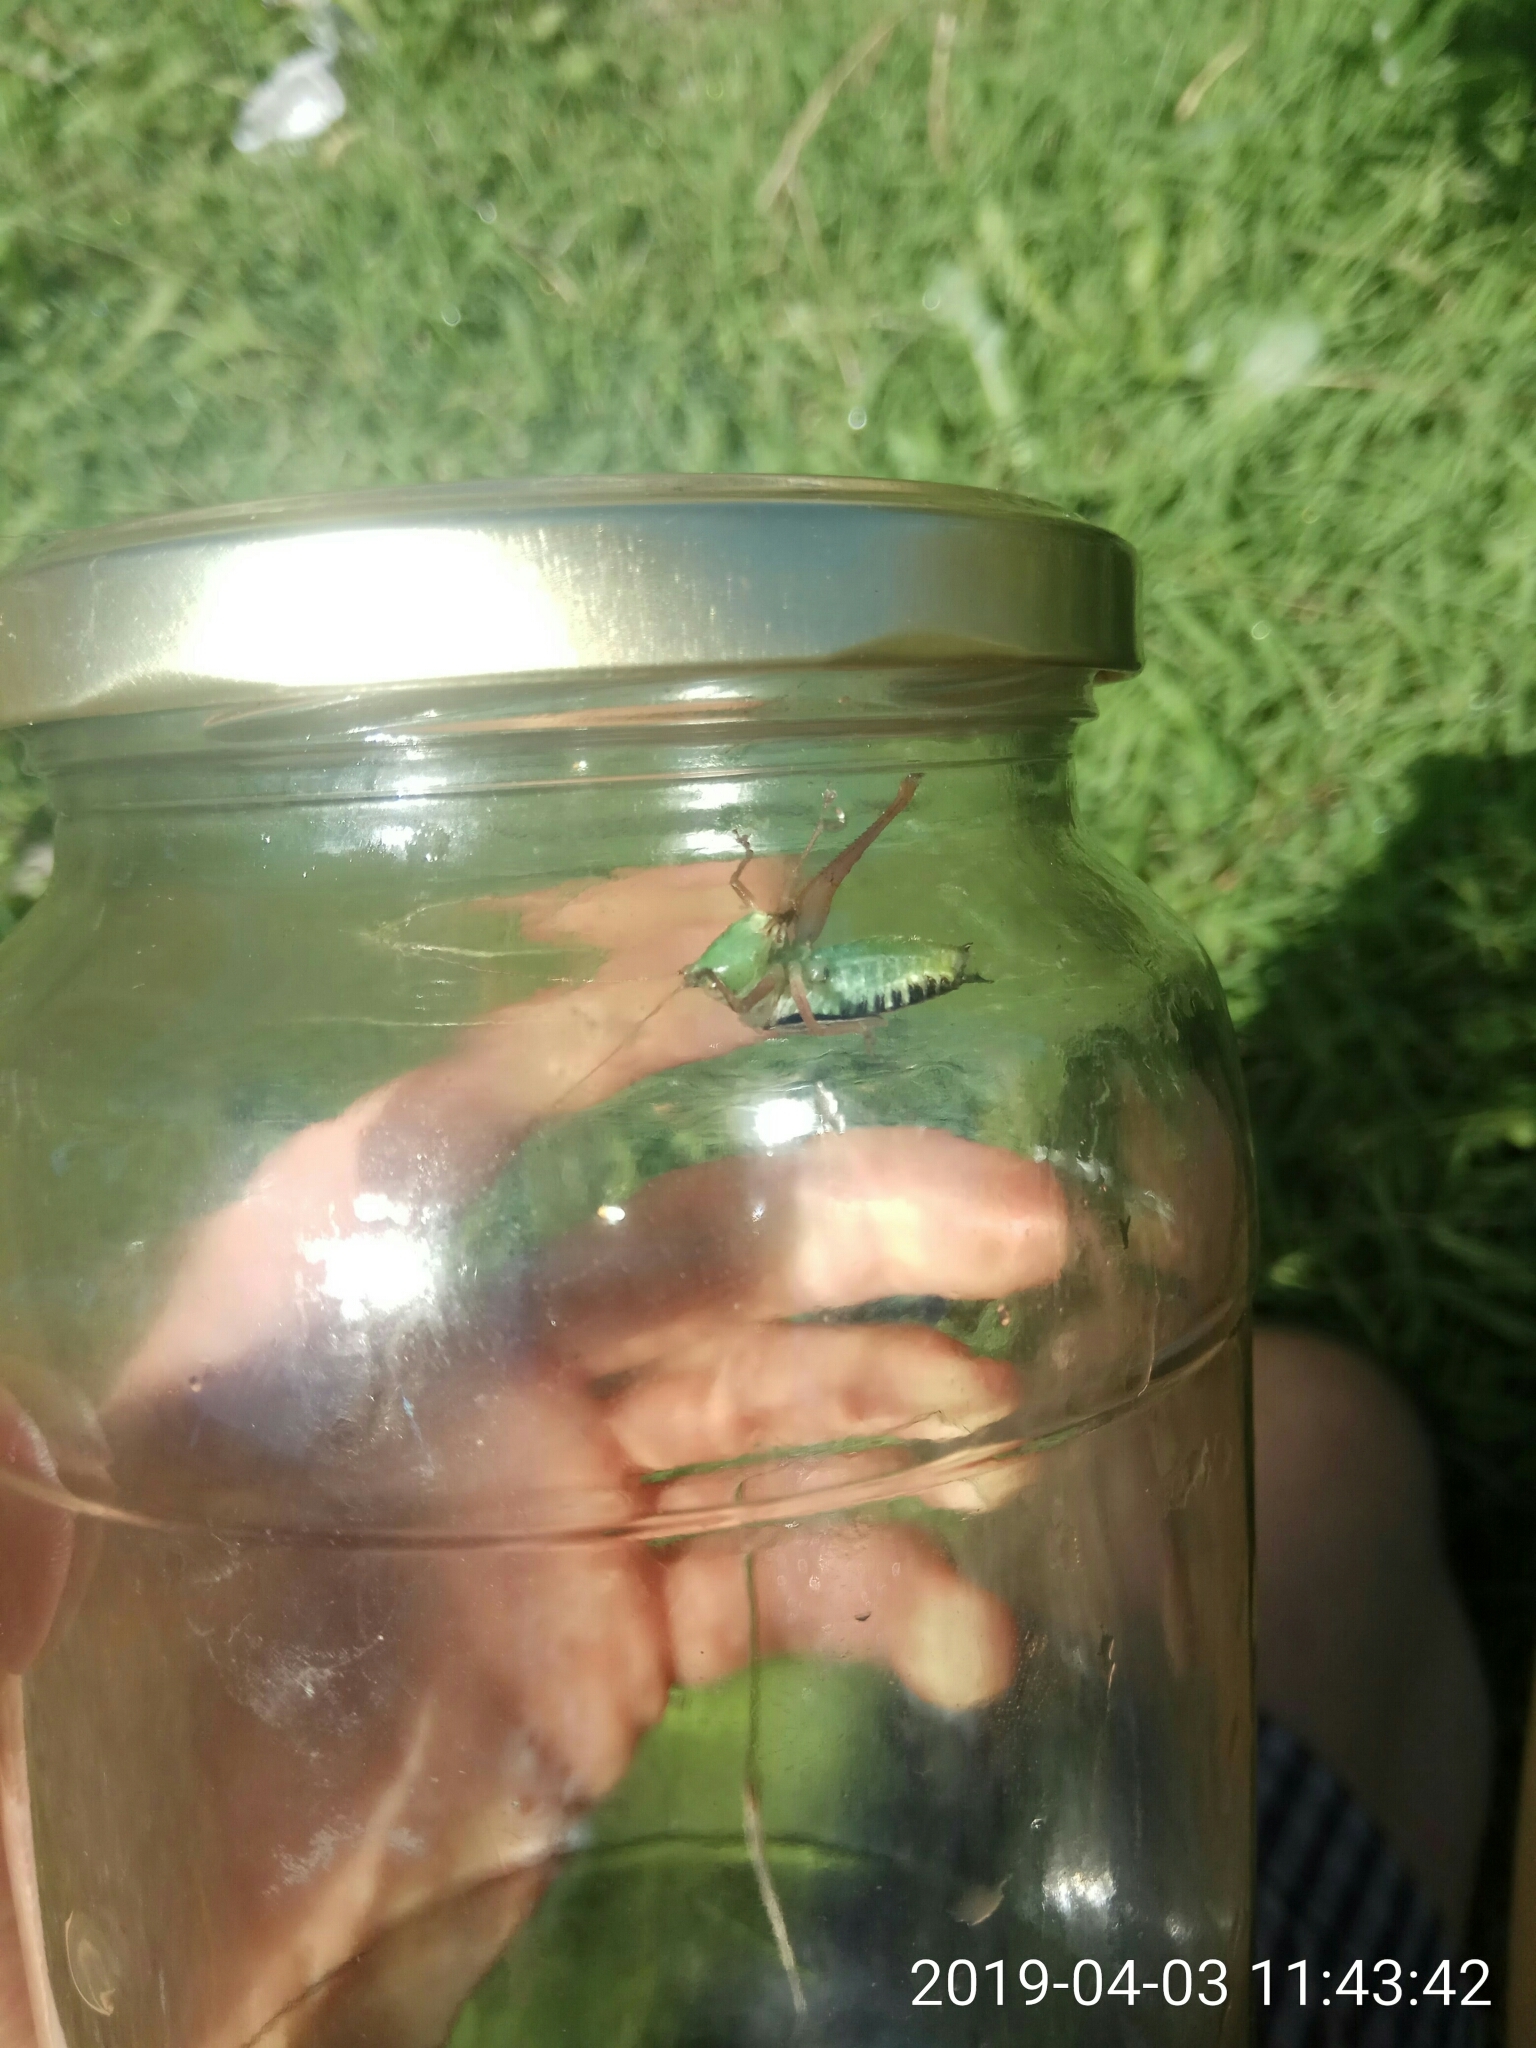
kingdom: Animalia
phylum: Arthropoda
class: Insecta
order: Orthoptera
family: Tettigoniidae
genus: Conocephalus
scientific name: Conocephalus semivittatus
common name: Blackish meadow katydid
